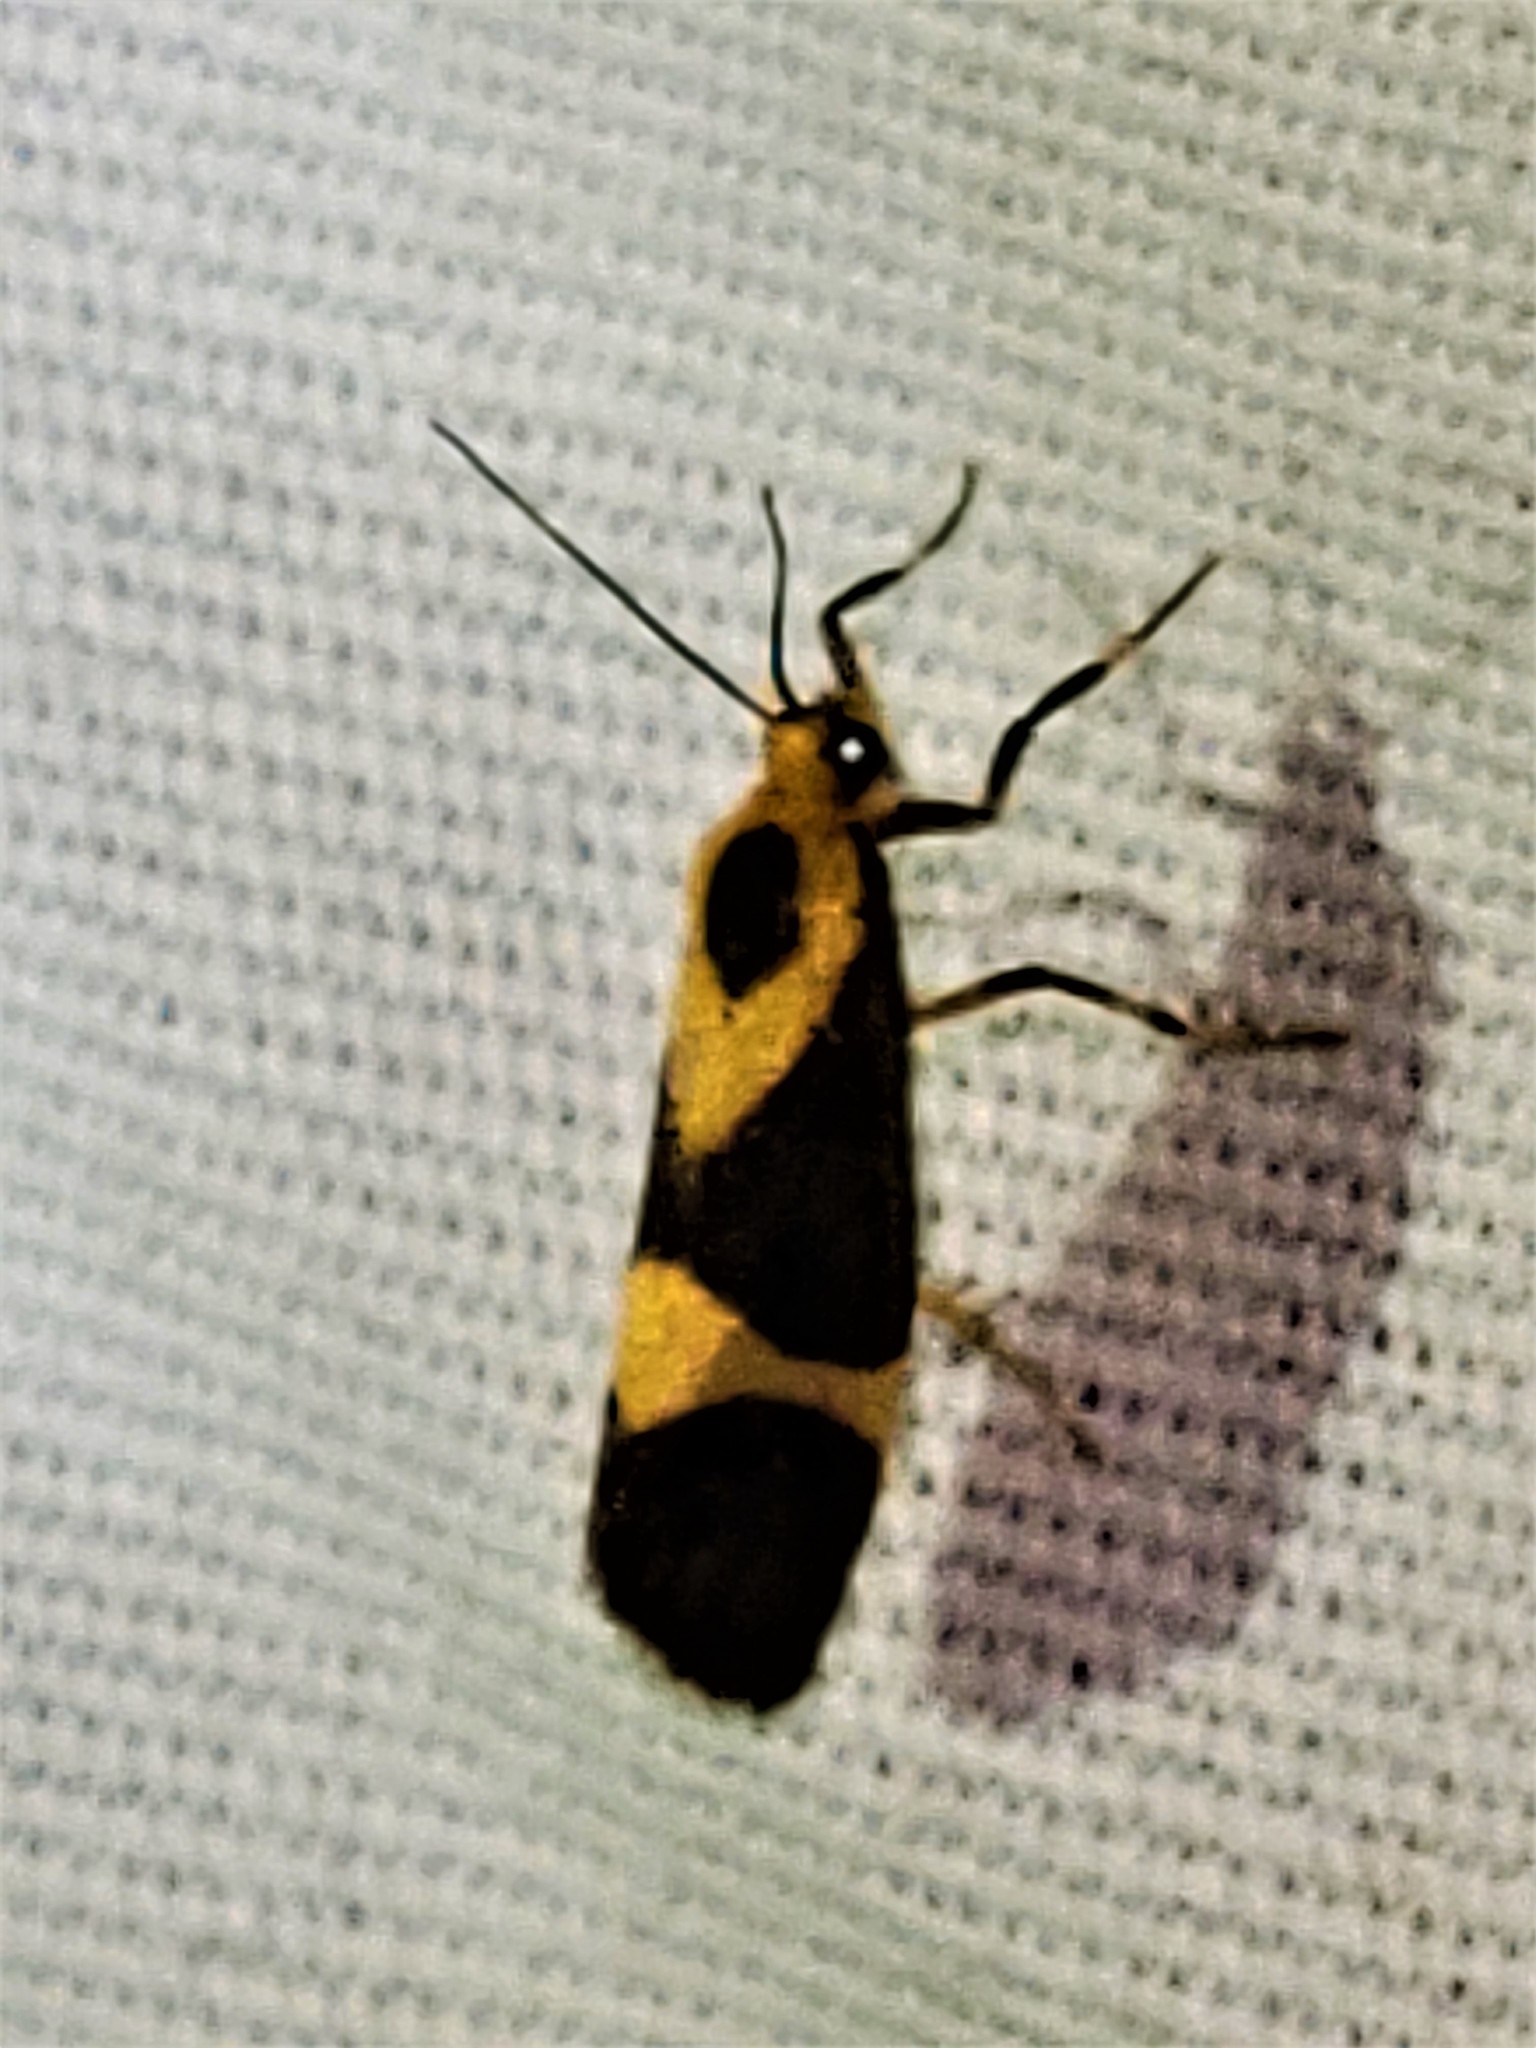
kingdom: Animalia
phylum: Arthropoda
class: Insecta
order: Lepidoptera
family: Erebidae
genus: Cisthene
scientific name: Cisthene subrufa
